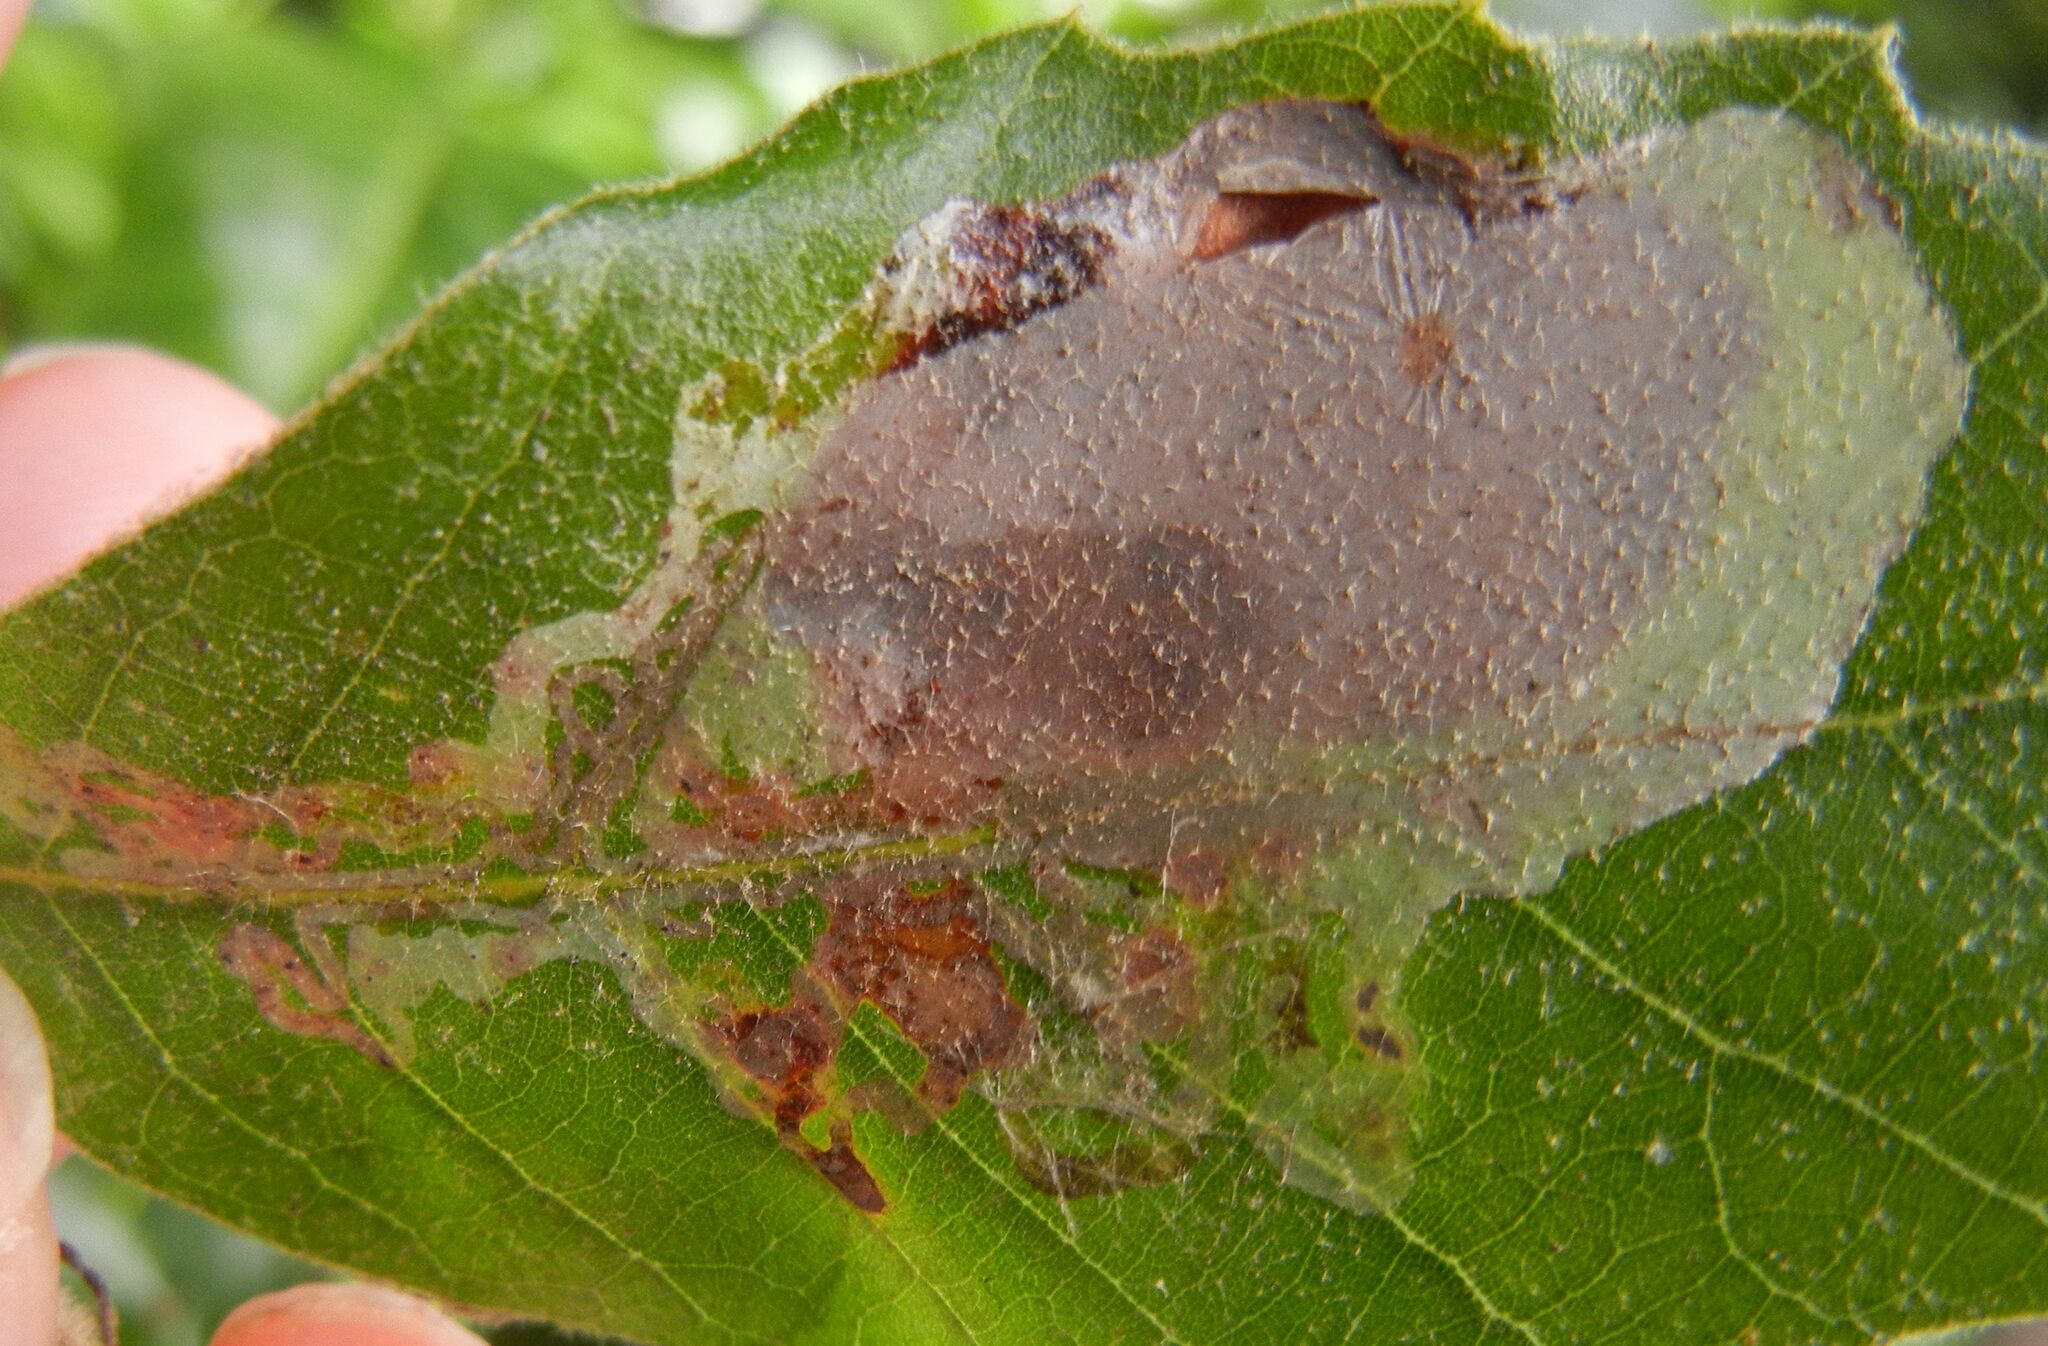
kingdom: Animalia
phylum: Arthropoda
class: Insecta
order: Lepidoptera
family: Gracillariidae
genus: Acrocercops
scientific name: Acrocercops brongniardella
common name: Brown oak slender
